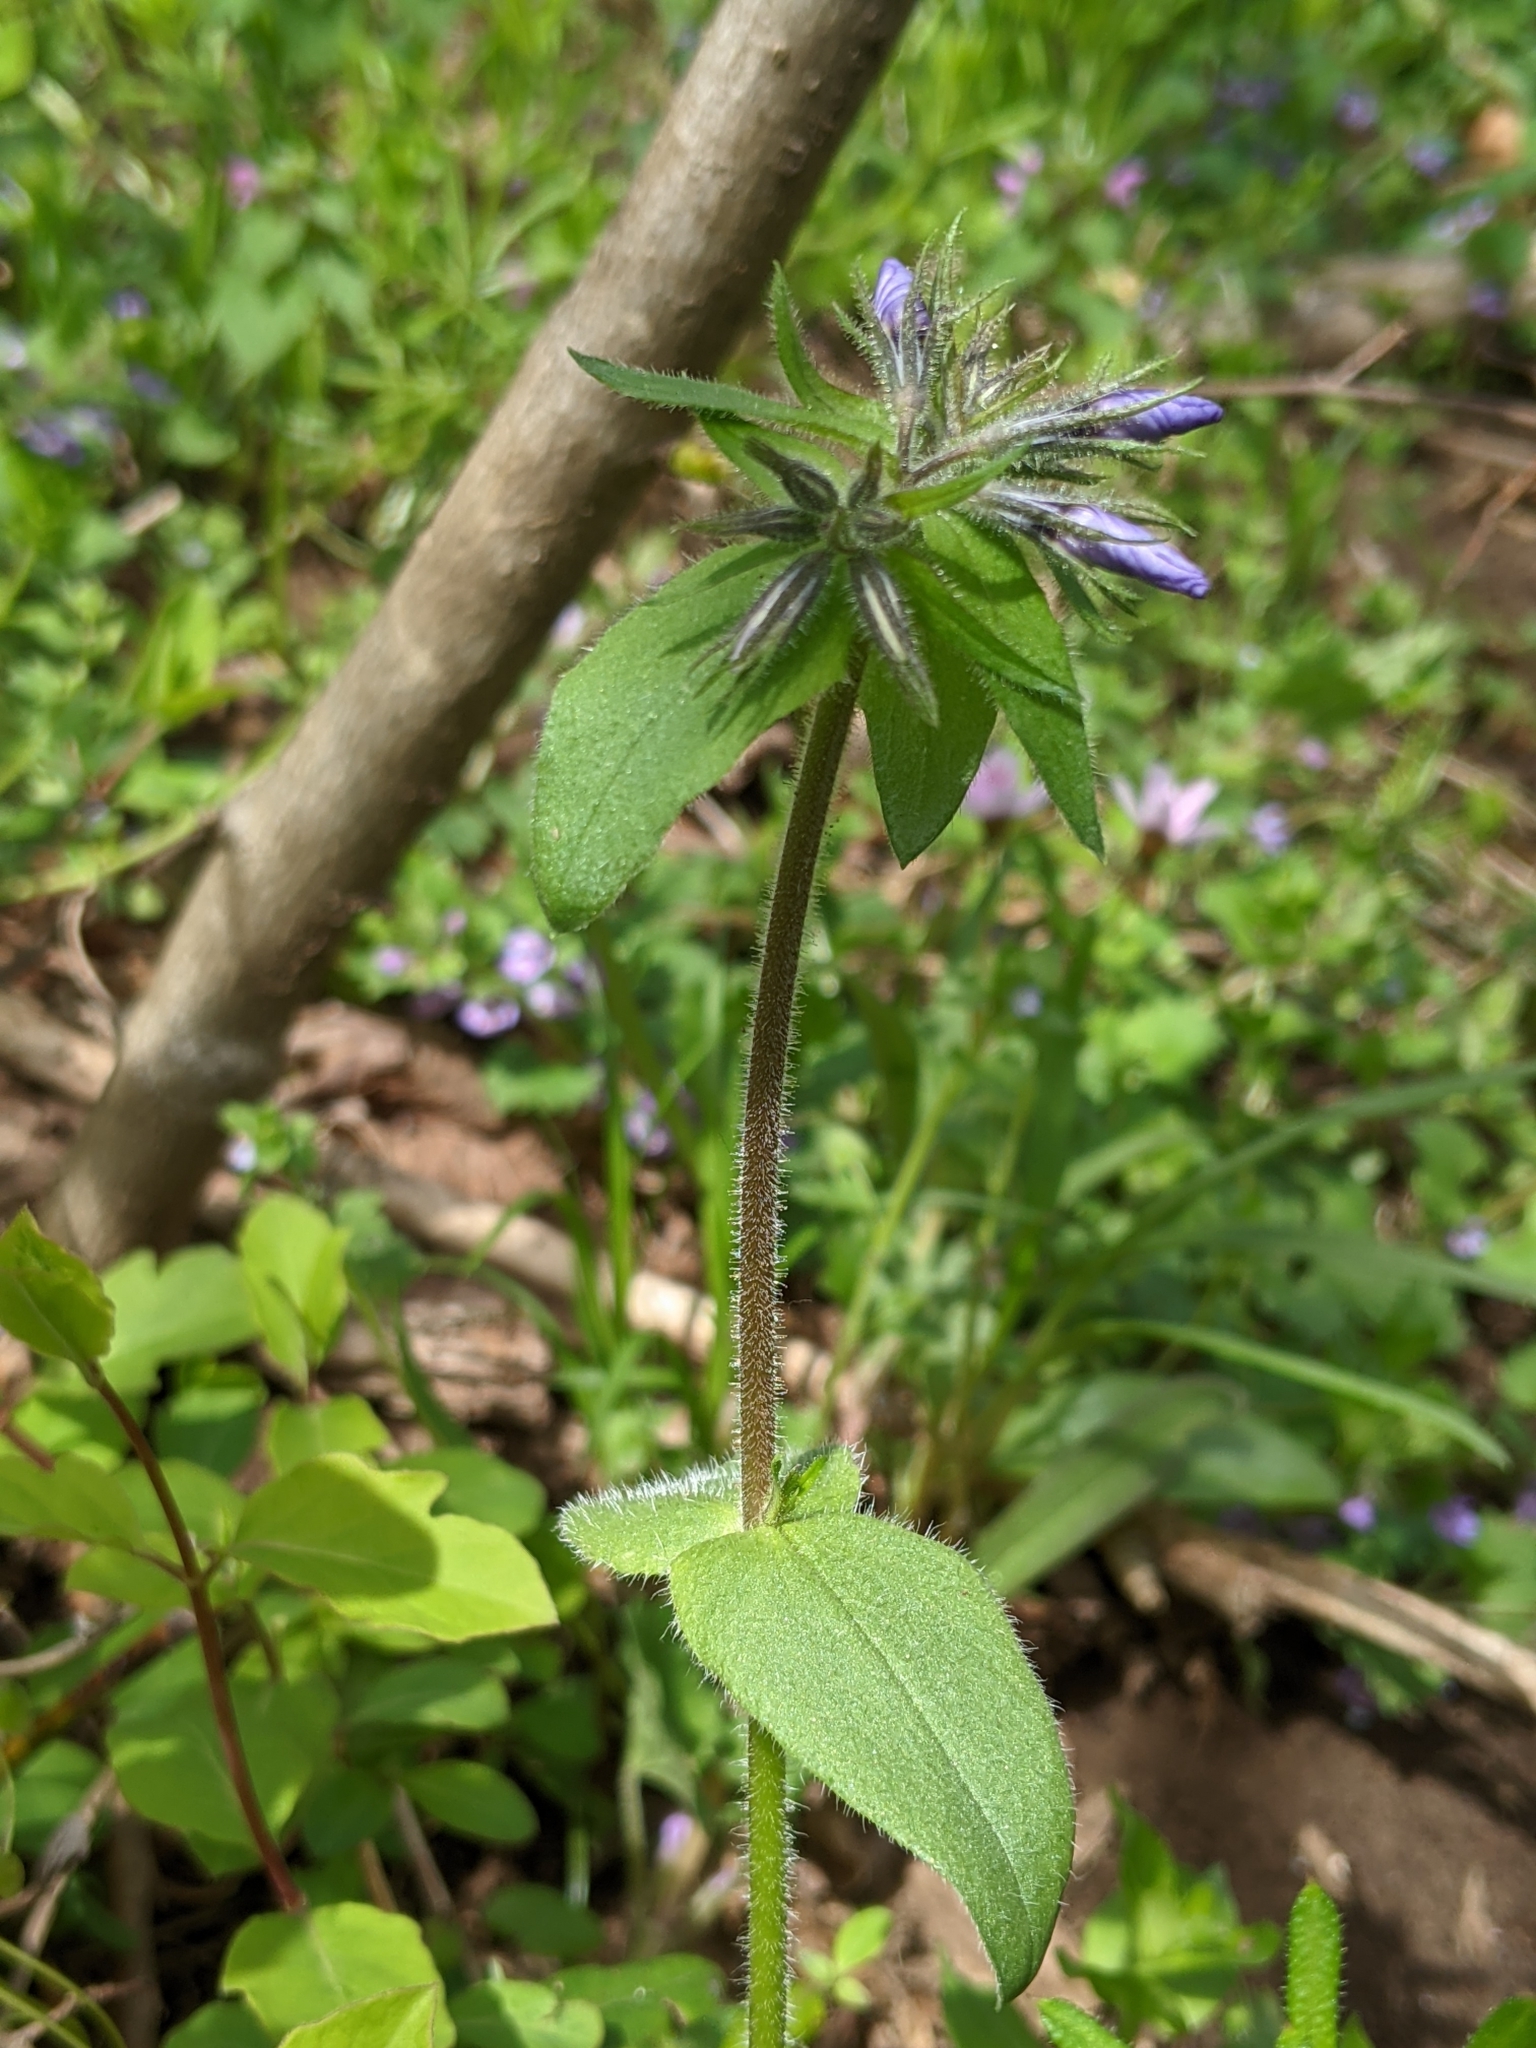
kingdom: Plantae
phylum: Tracheophyta
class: Magnoliopsida
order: Ericales
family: Polemoniaceae
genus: Phlox
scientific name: Phlox divaricata
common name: Blue phlox
